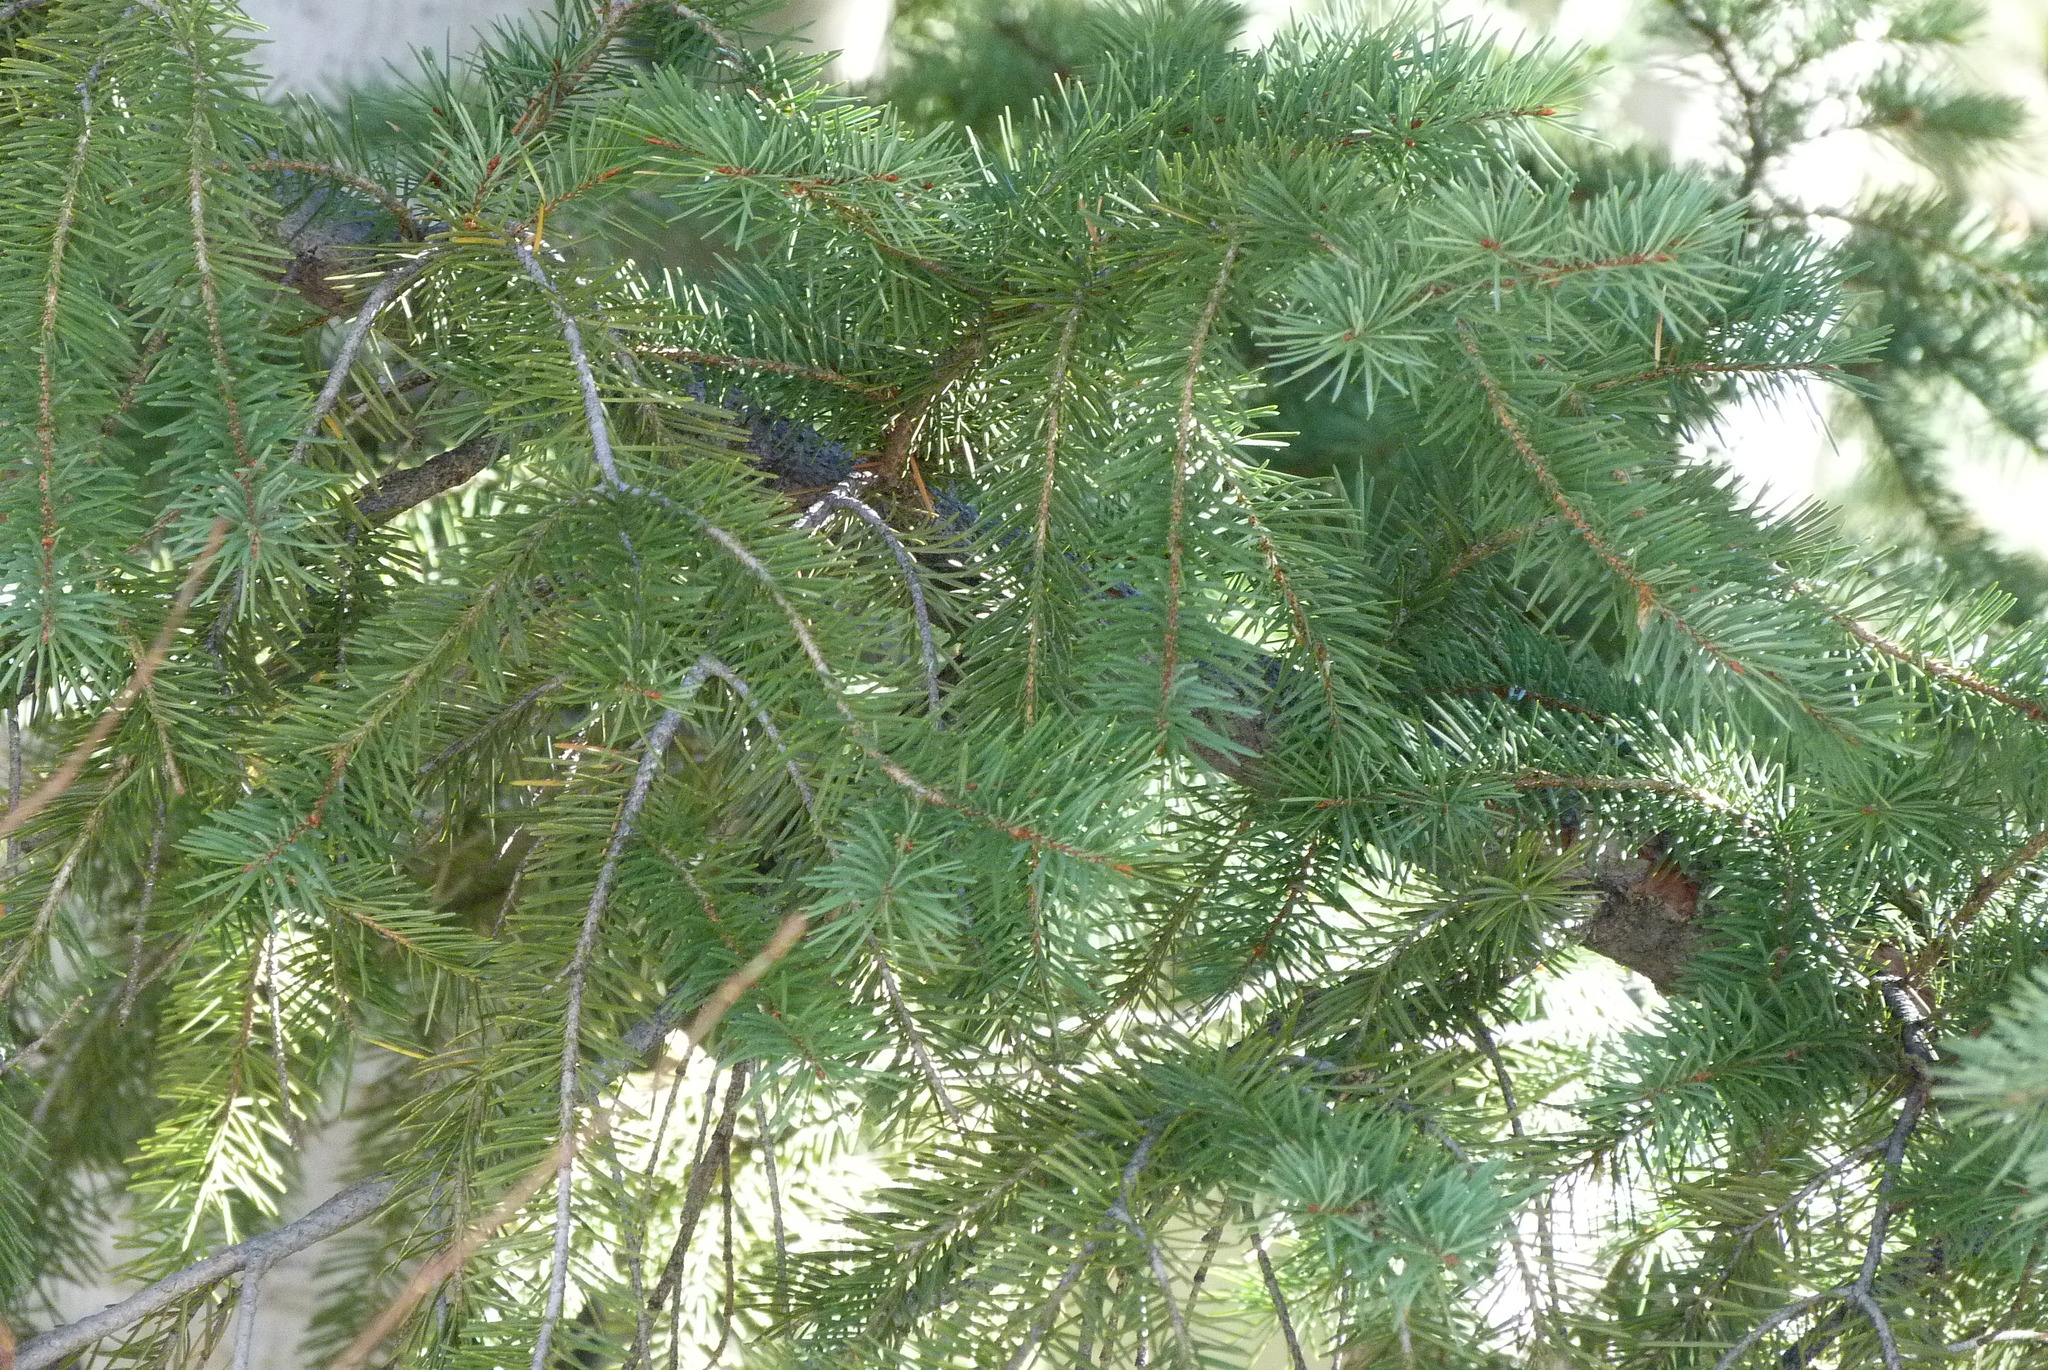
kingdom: Plantae
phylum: Tracheophyta
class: Pinopsida
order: Pinales
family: Pinaceae
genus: Pseudotsuga
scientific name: Pseudotsuga menziesii
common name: Douglas fir
